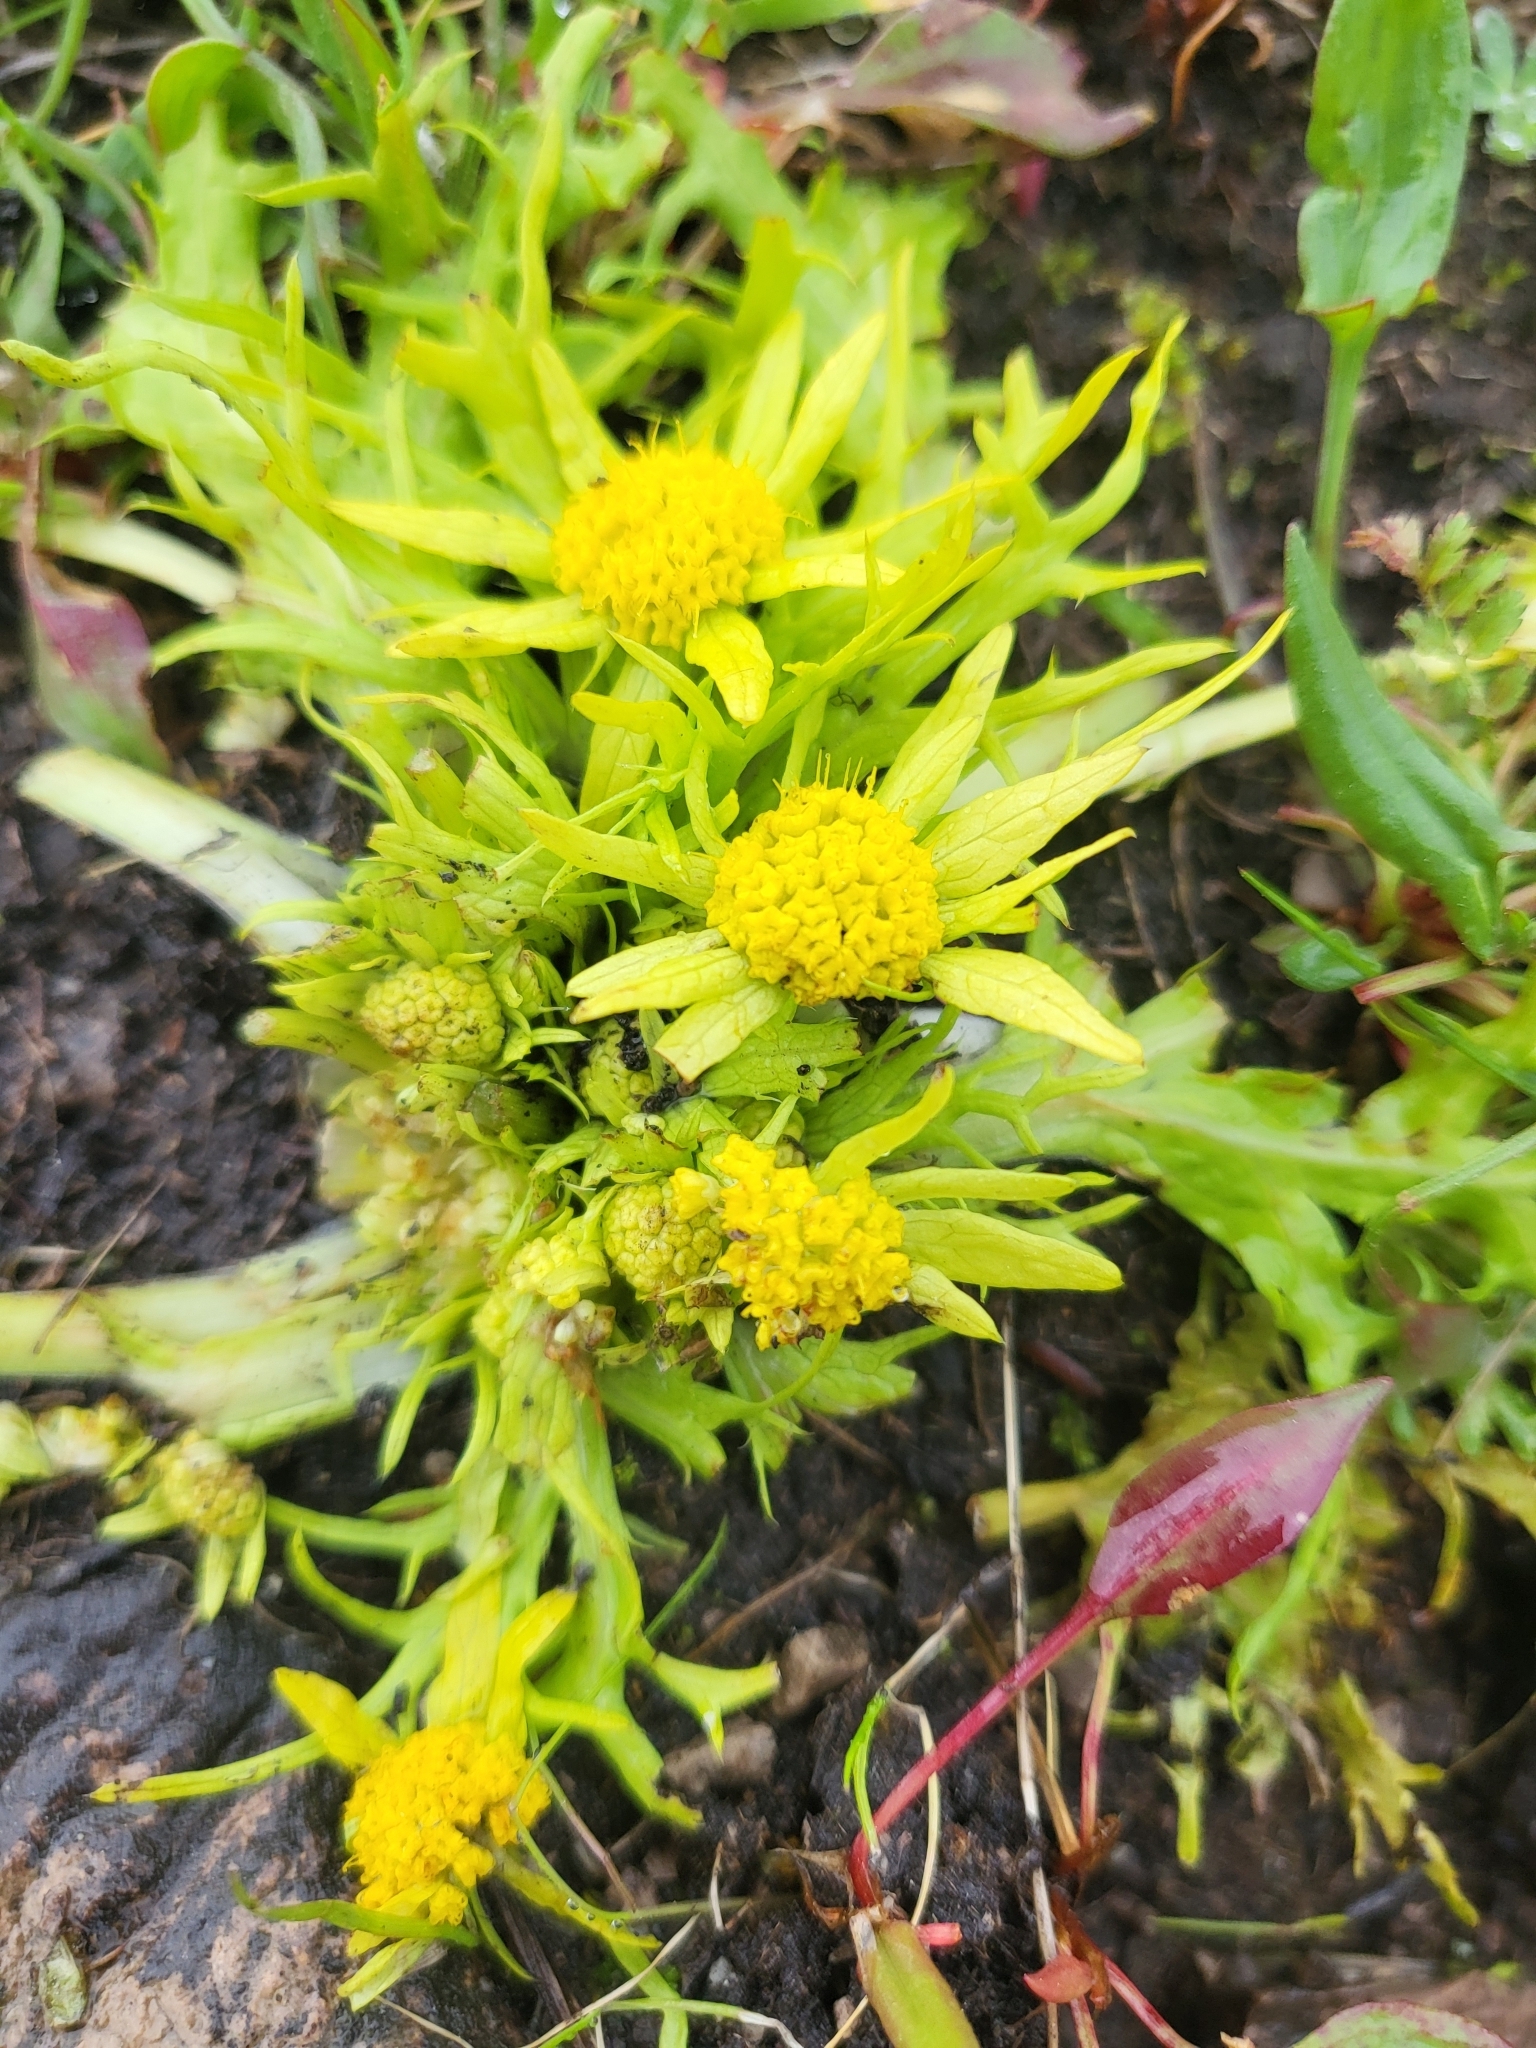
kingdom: Plantae
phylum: Tracheophyta
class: Magnoliopsida
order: Apiales
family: Apiaceae
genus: Sanicula
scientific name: Sanicula arctopoides
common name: Footsteps-of-spring
